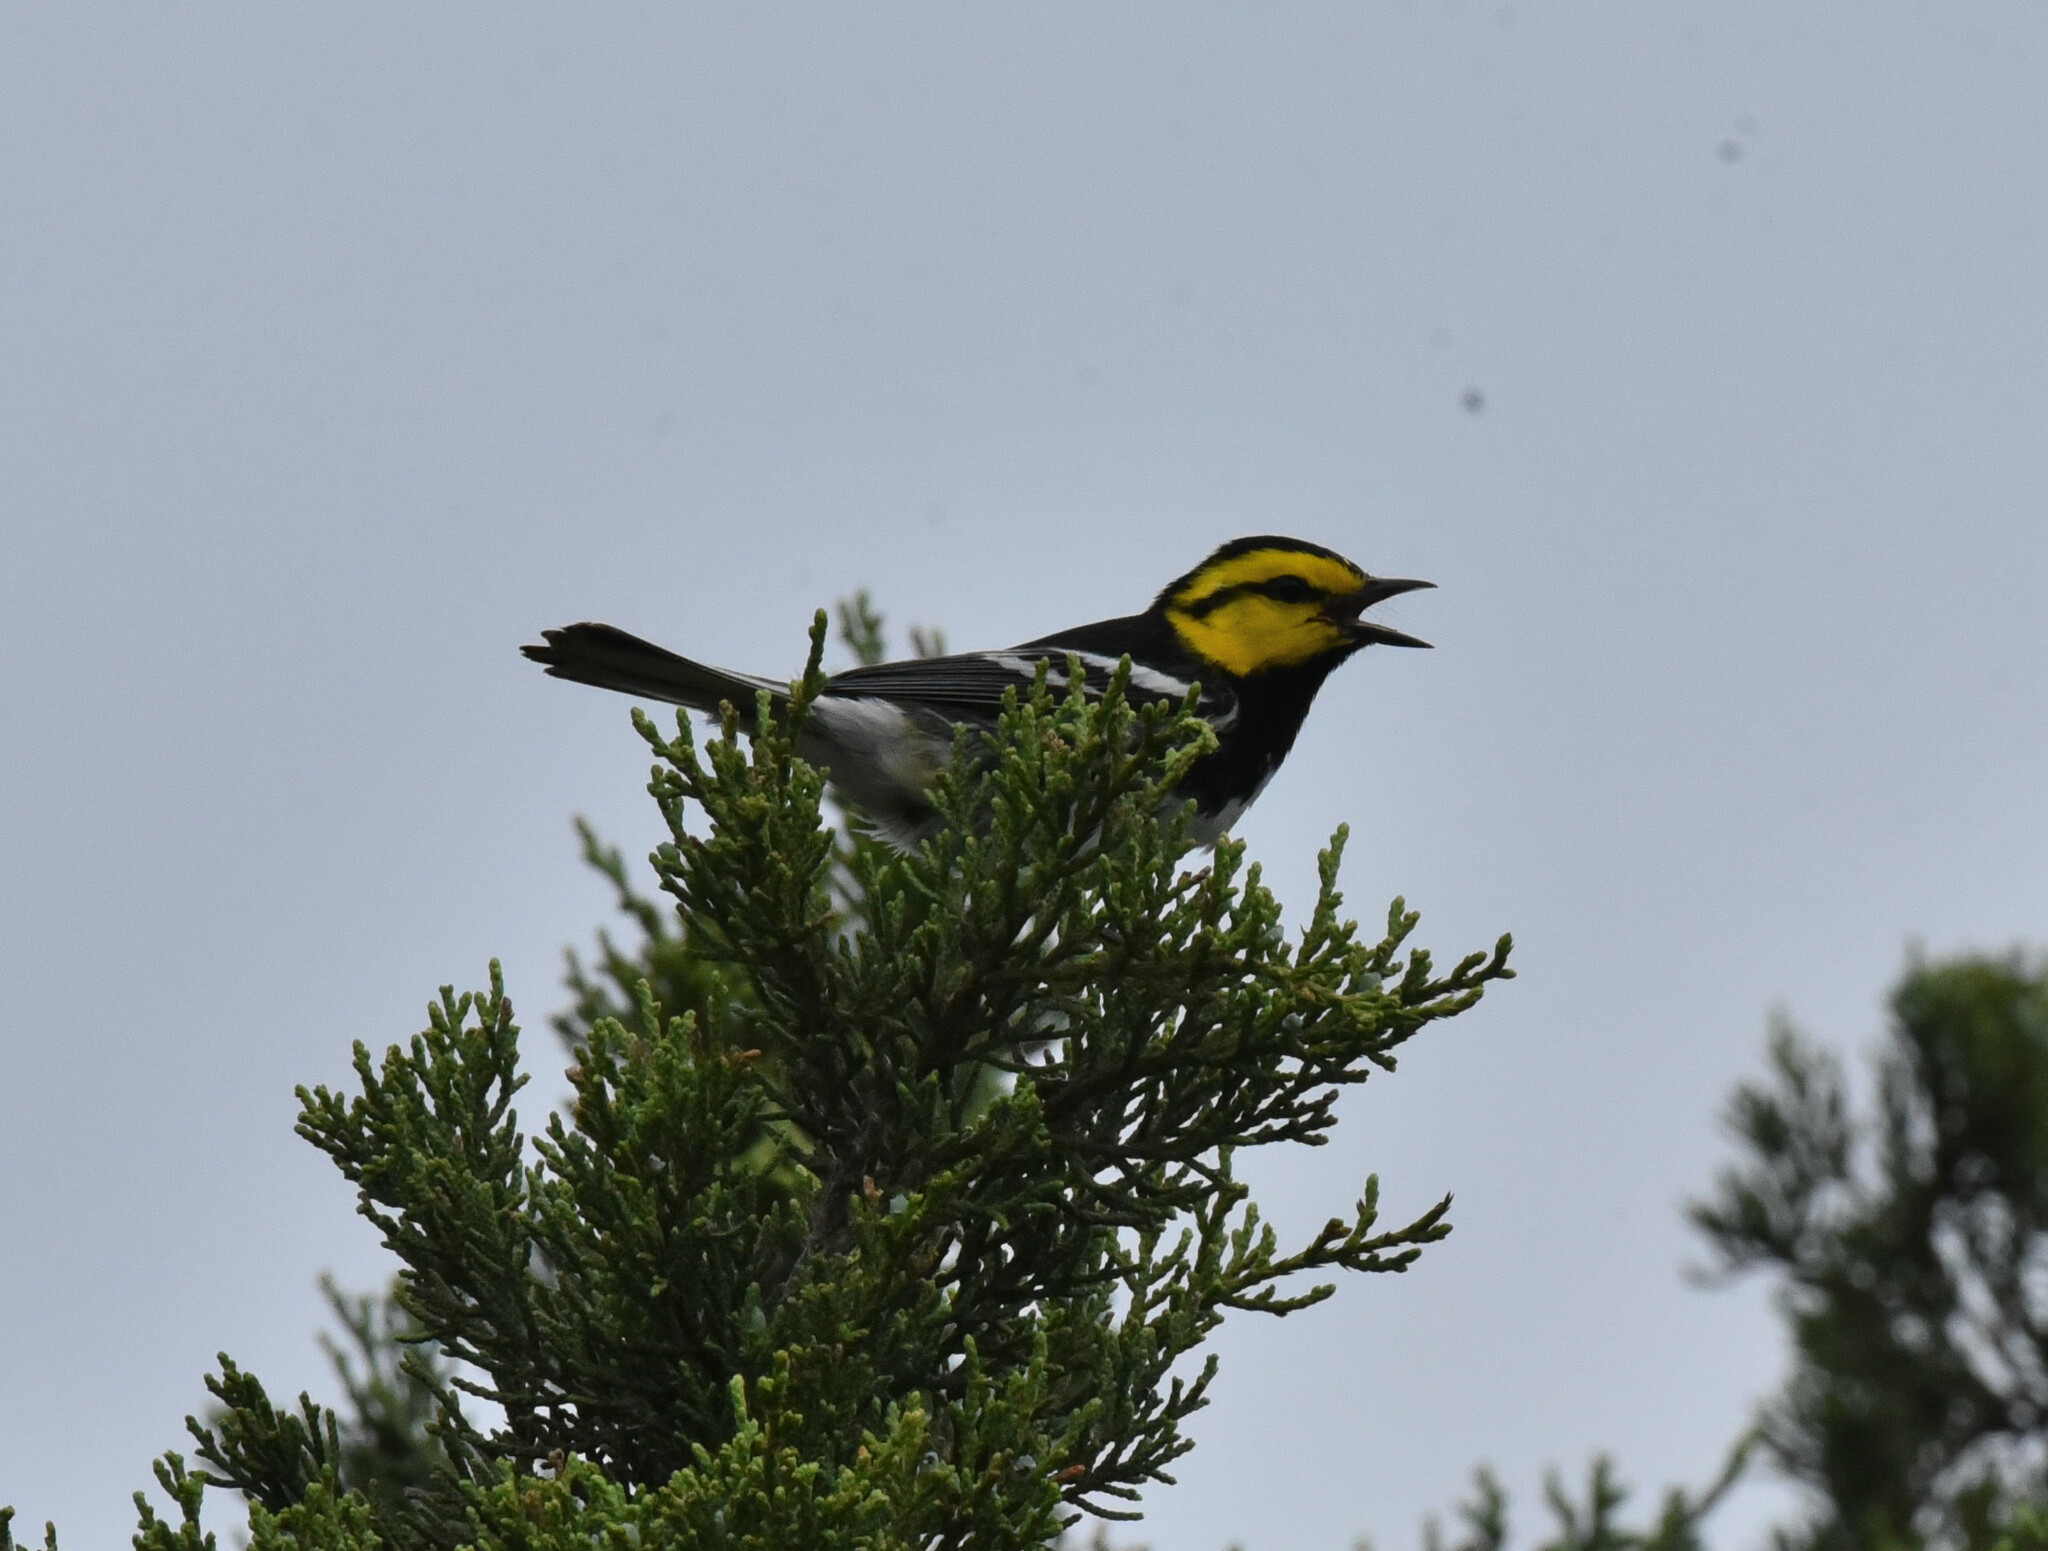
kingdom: Animalia
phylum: Chordata
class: Aves
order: Passeriformes
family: Parulidae
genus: Setophaga
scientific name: Setophaga chrysoparia
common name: Golden-cheeked warbler
